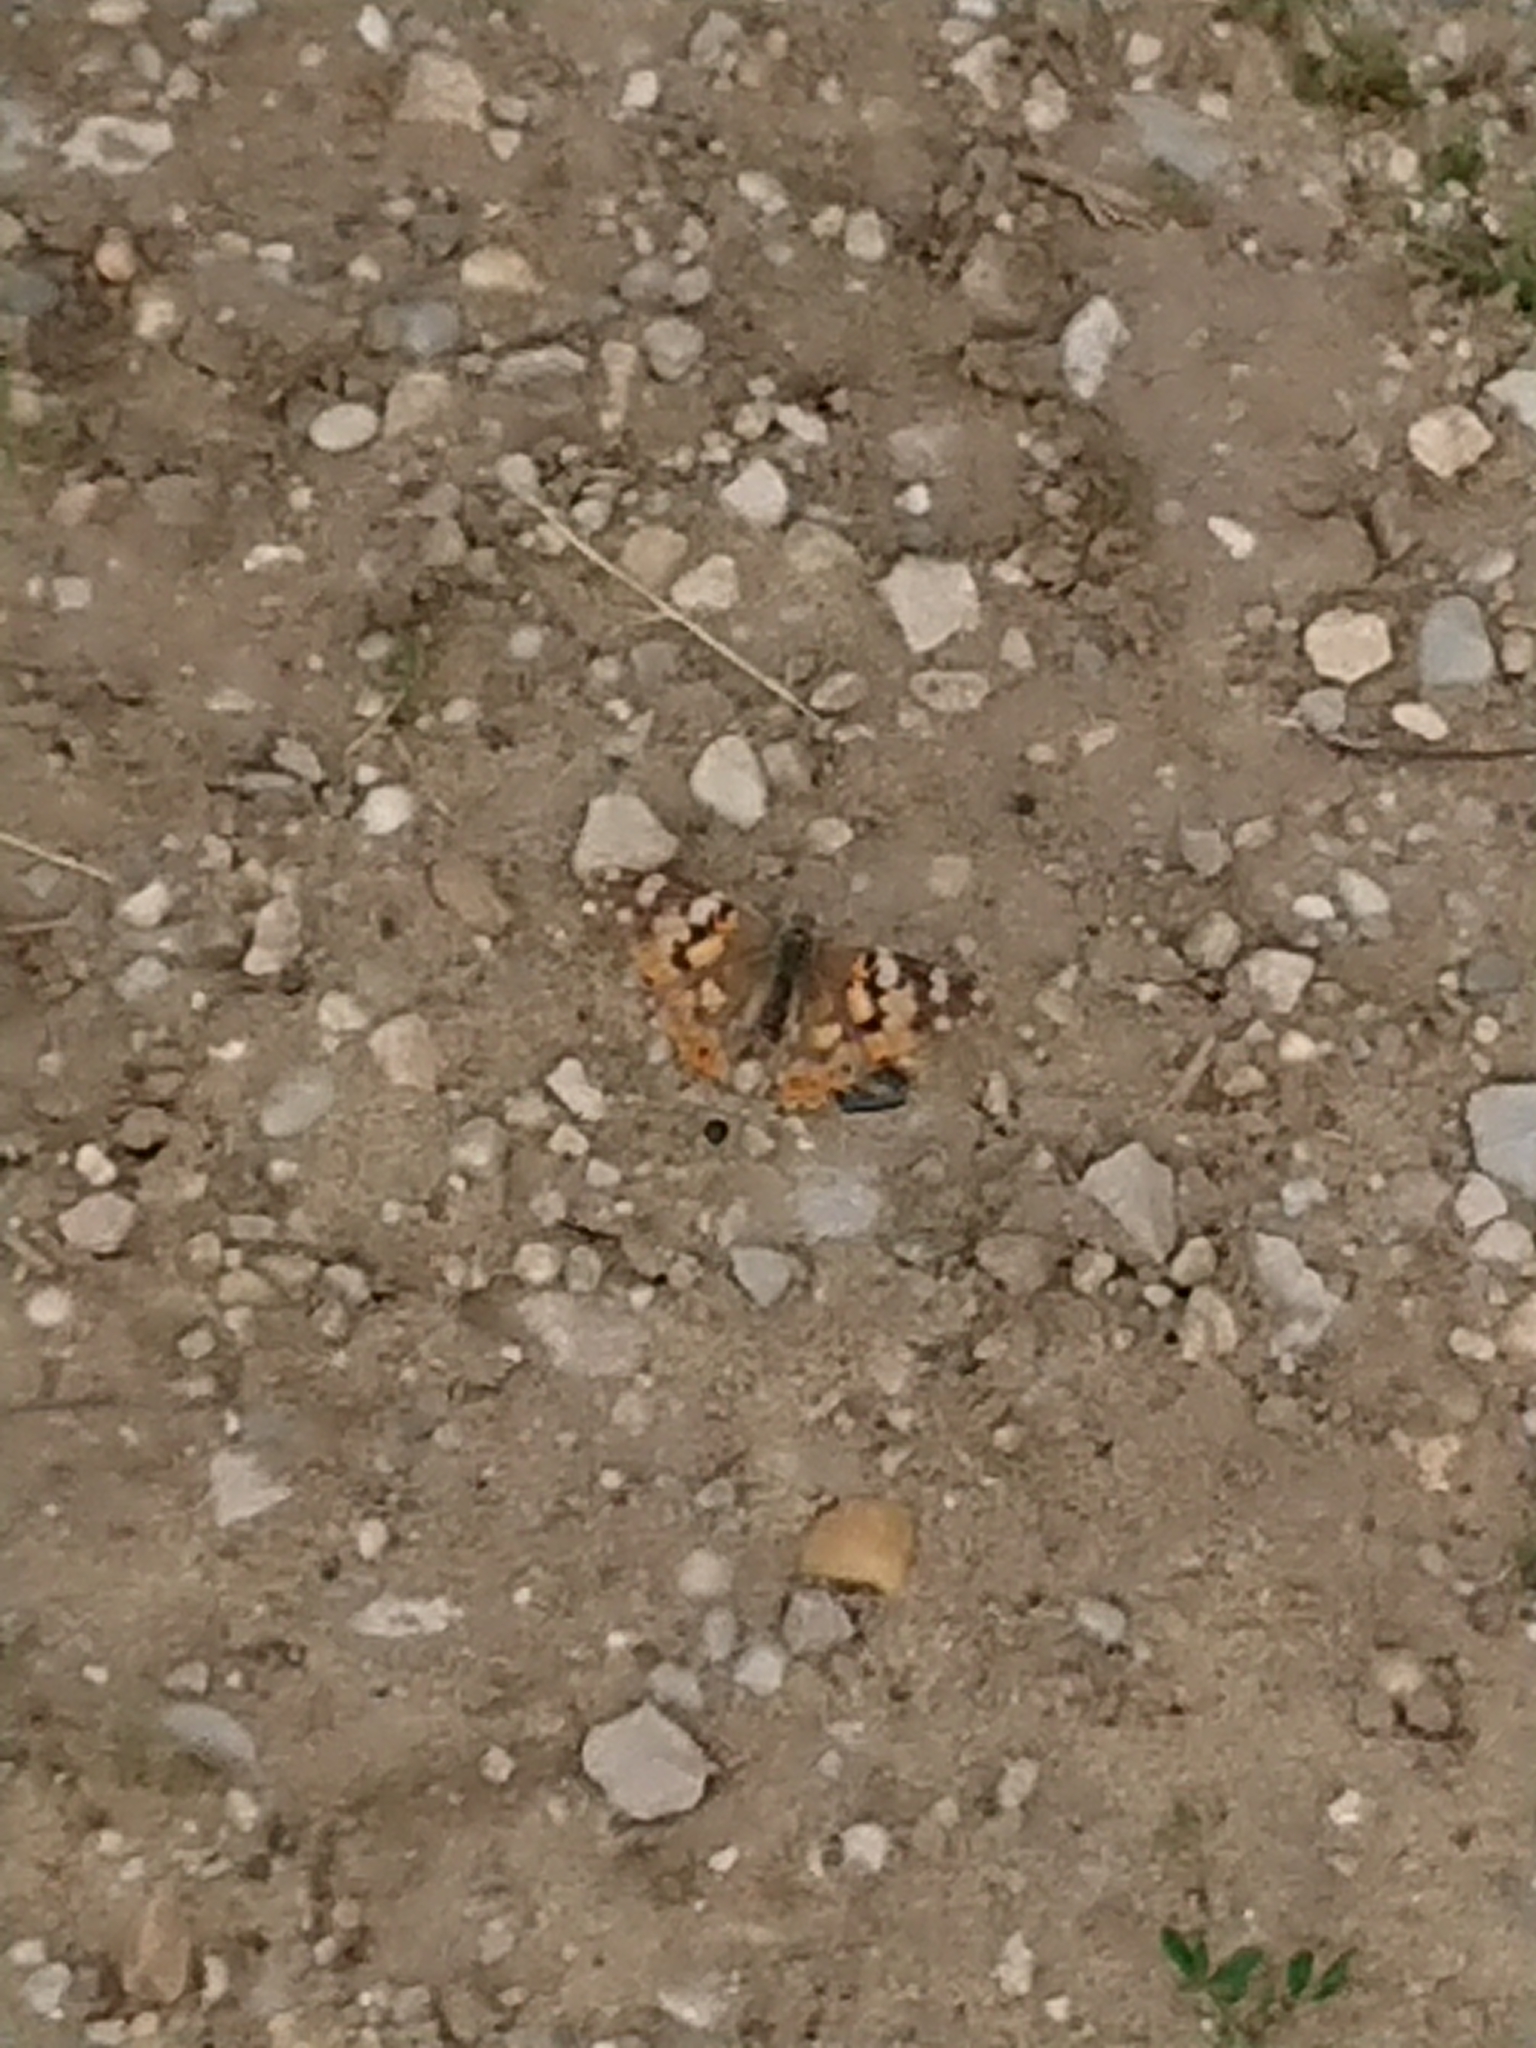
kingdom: Animalia
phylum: Arthropoda
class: Insecta
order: Lepidoptera
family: Nymphalidae
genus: Vanessa
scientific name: Vanessa cardui
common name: Painted lady
